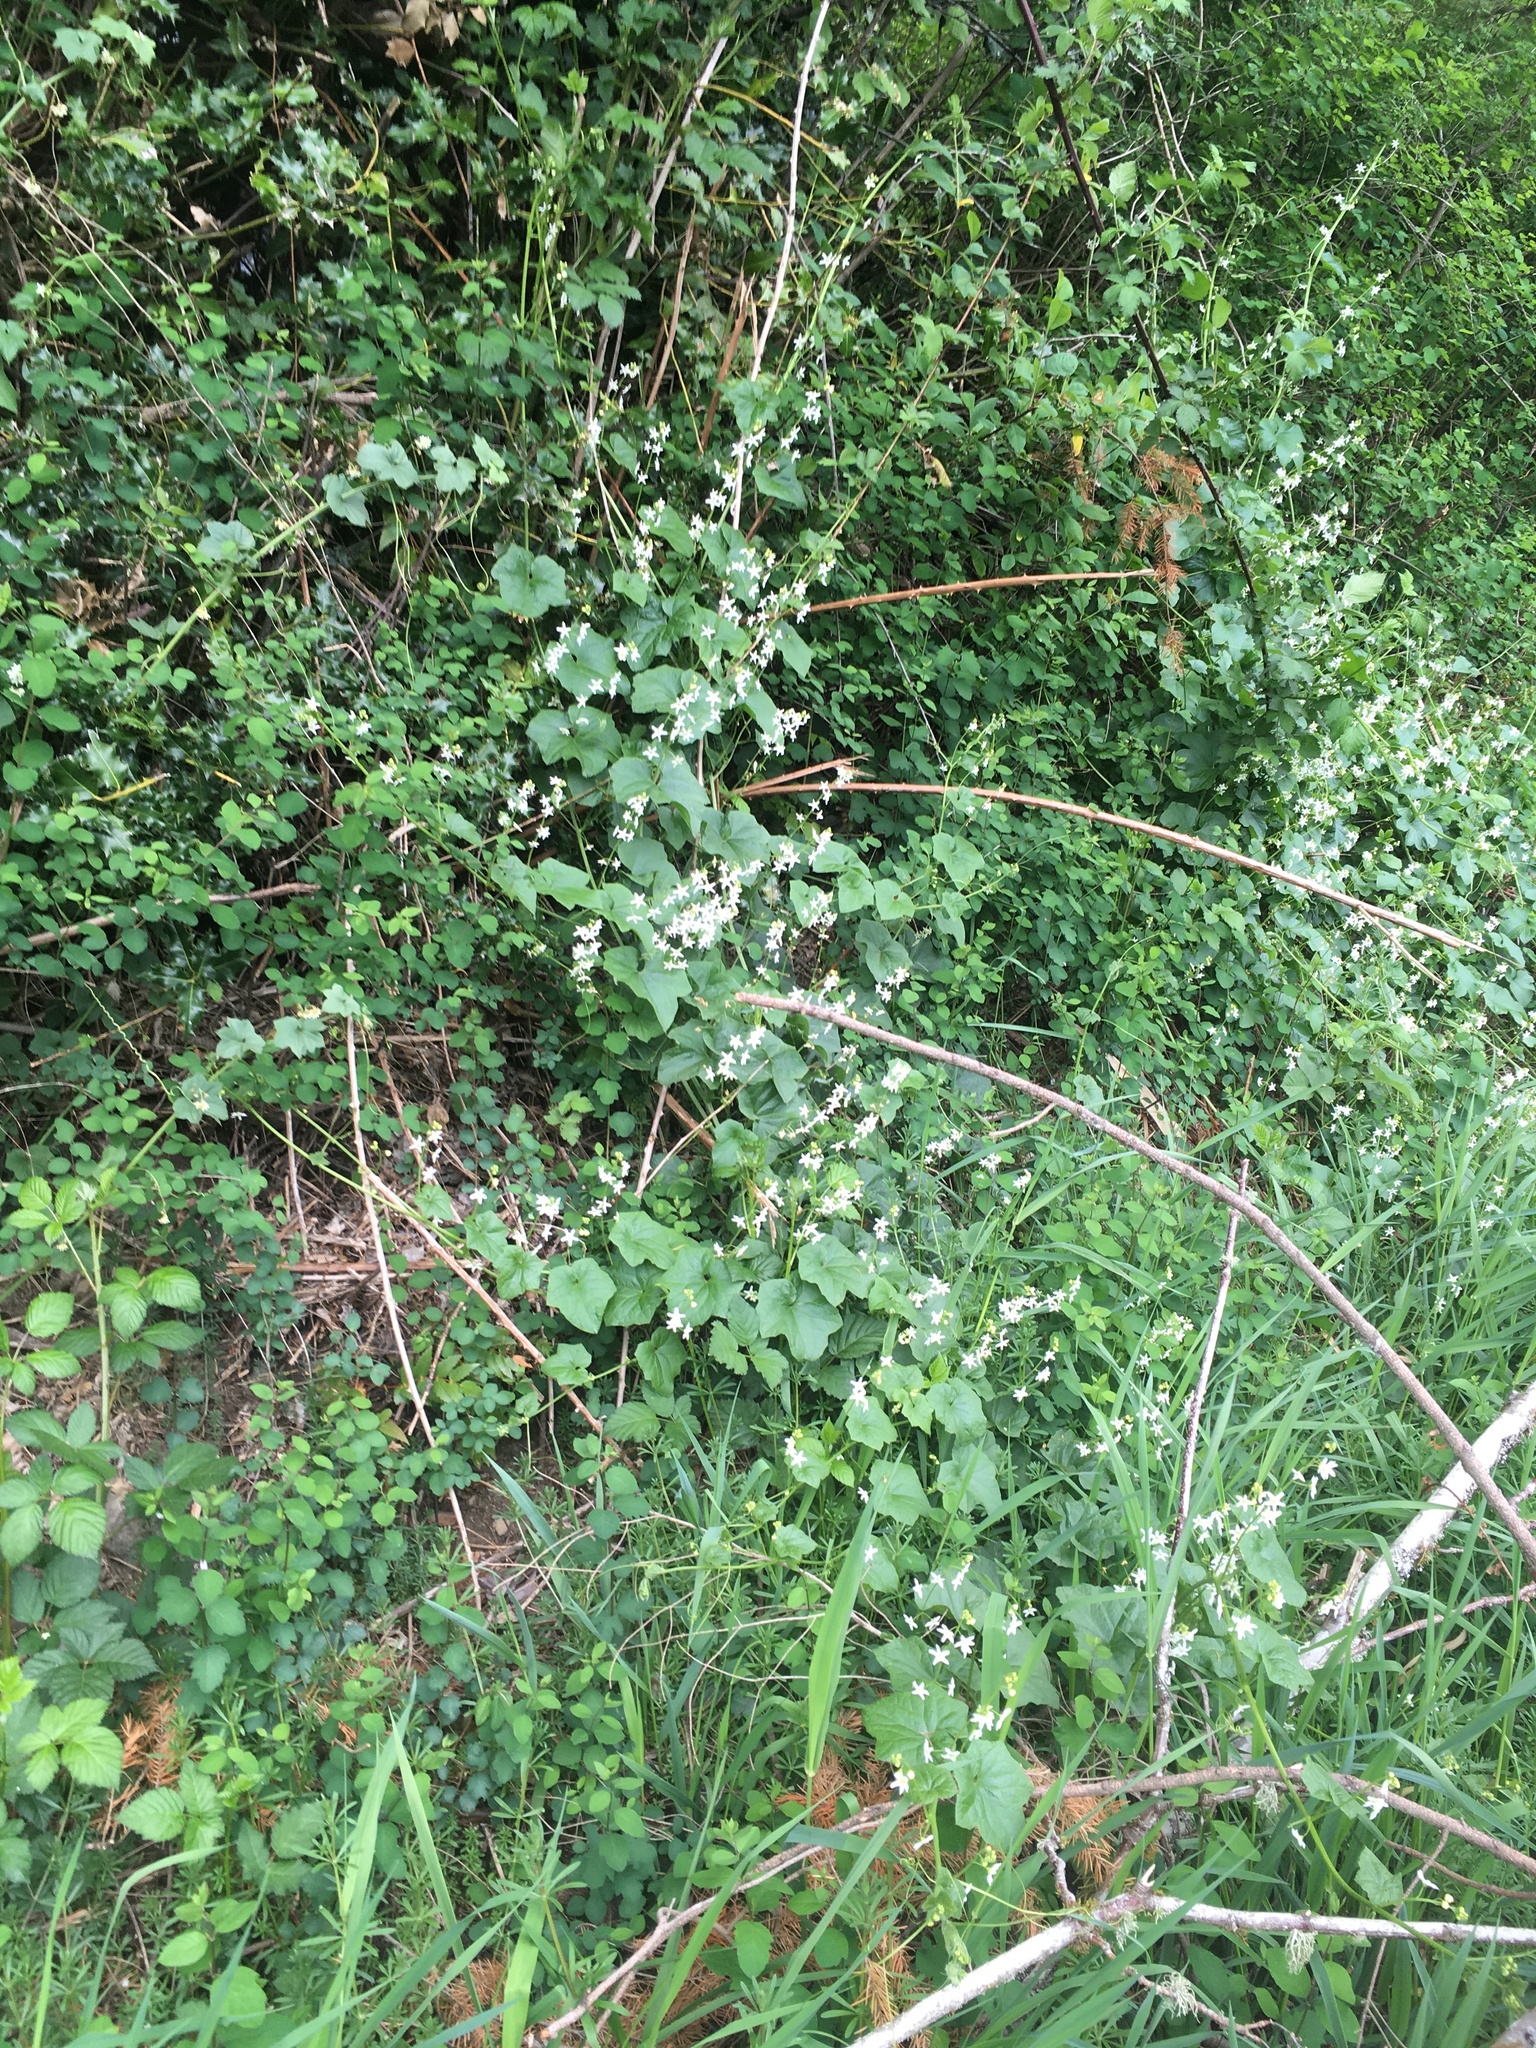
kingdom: Plantae
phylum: Tracheophyta
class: Magnoliopsida
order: Cucurbitales
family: Cucurbitaceae
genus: Marah
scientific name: Marah oregana
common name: Coastal manroot
